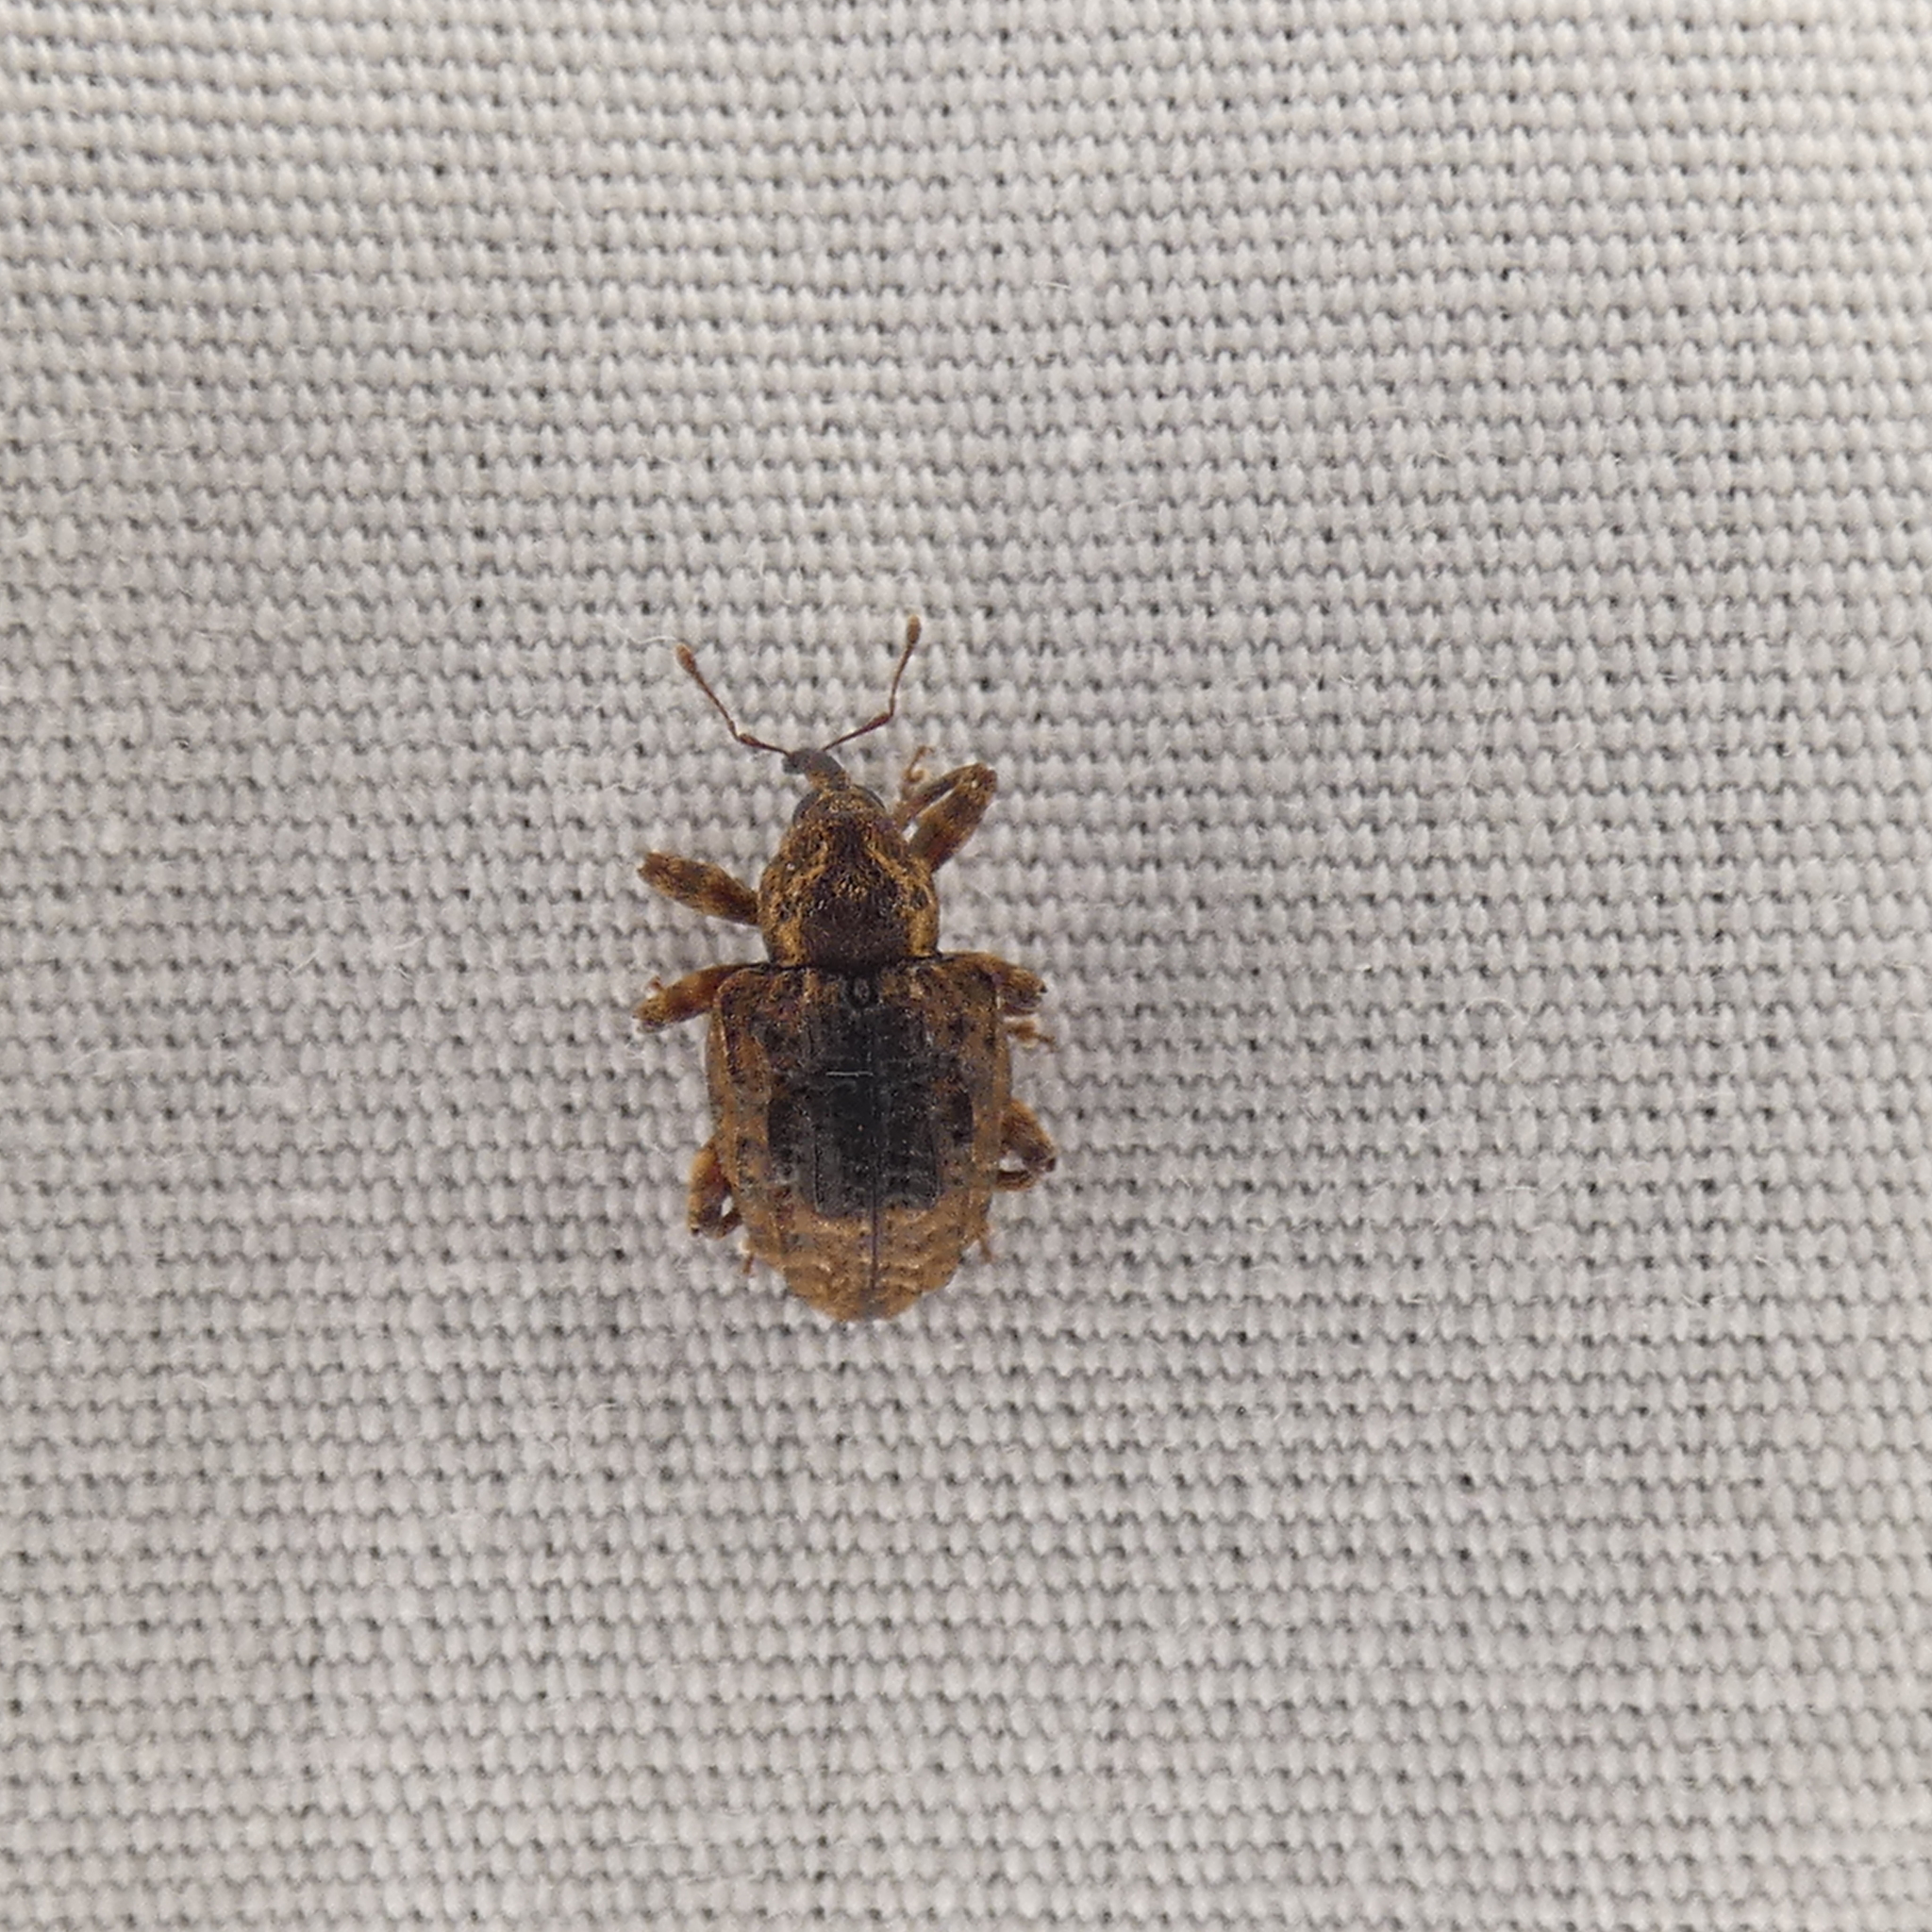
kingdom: Animalia
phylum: Arthropoda
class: Insecta
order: Coleoptera
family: Curculionidae
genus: Conotrachelus
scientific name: Conotrachelus iowensis
